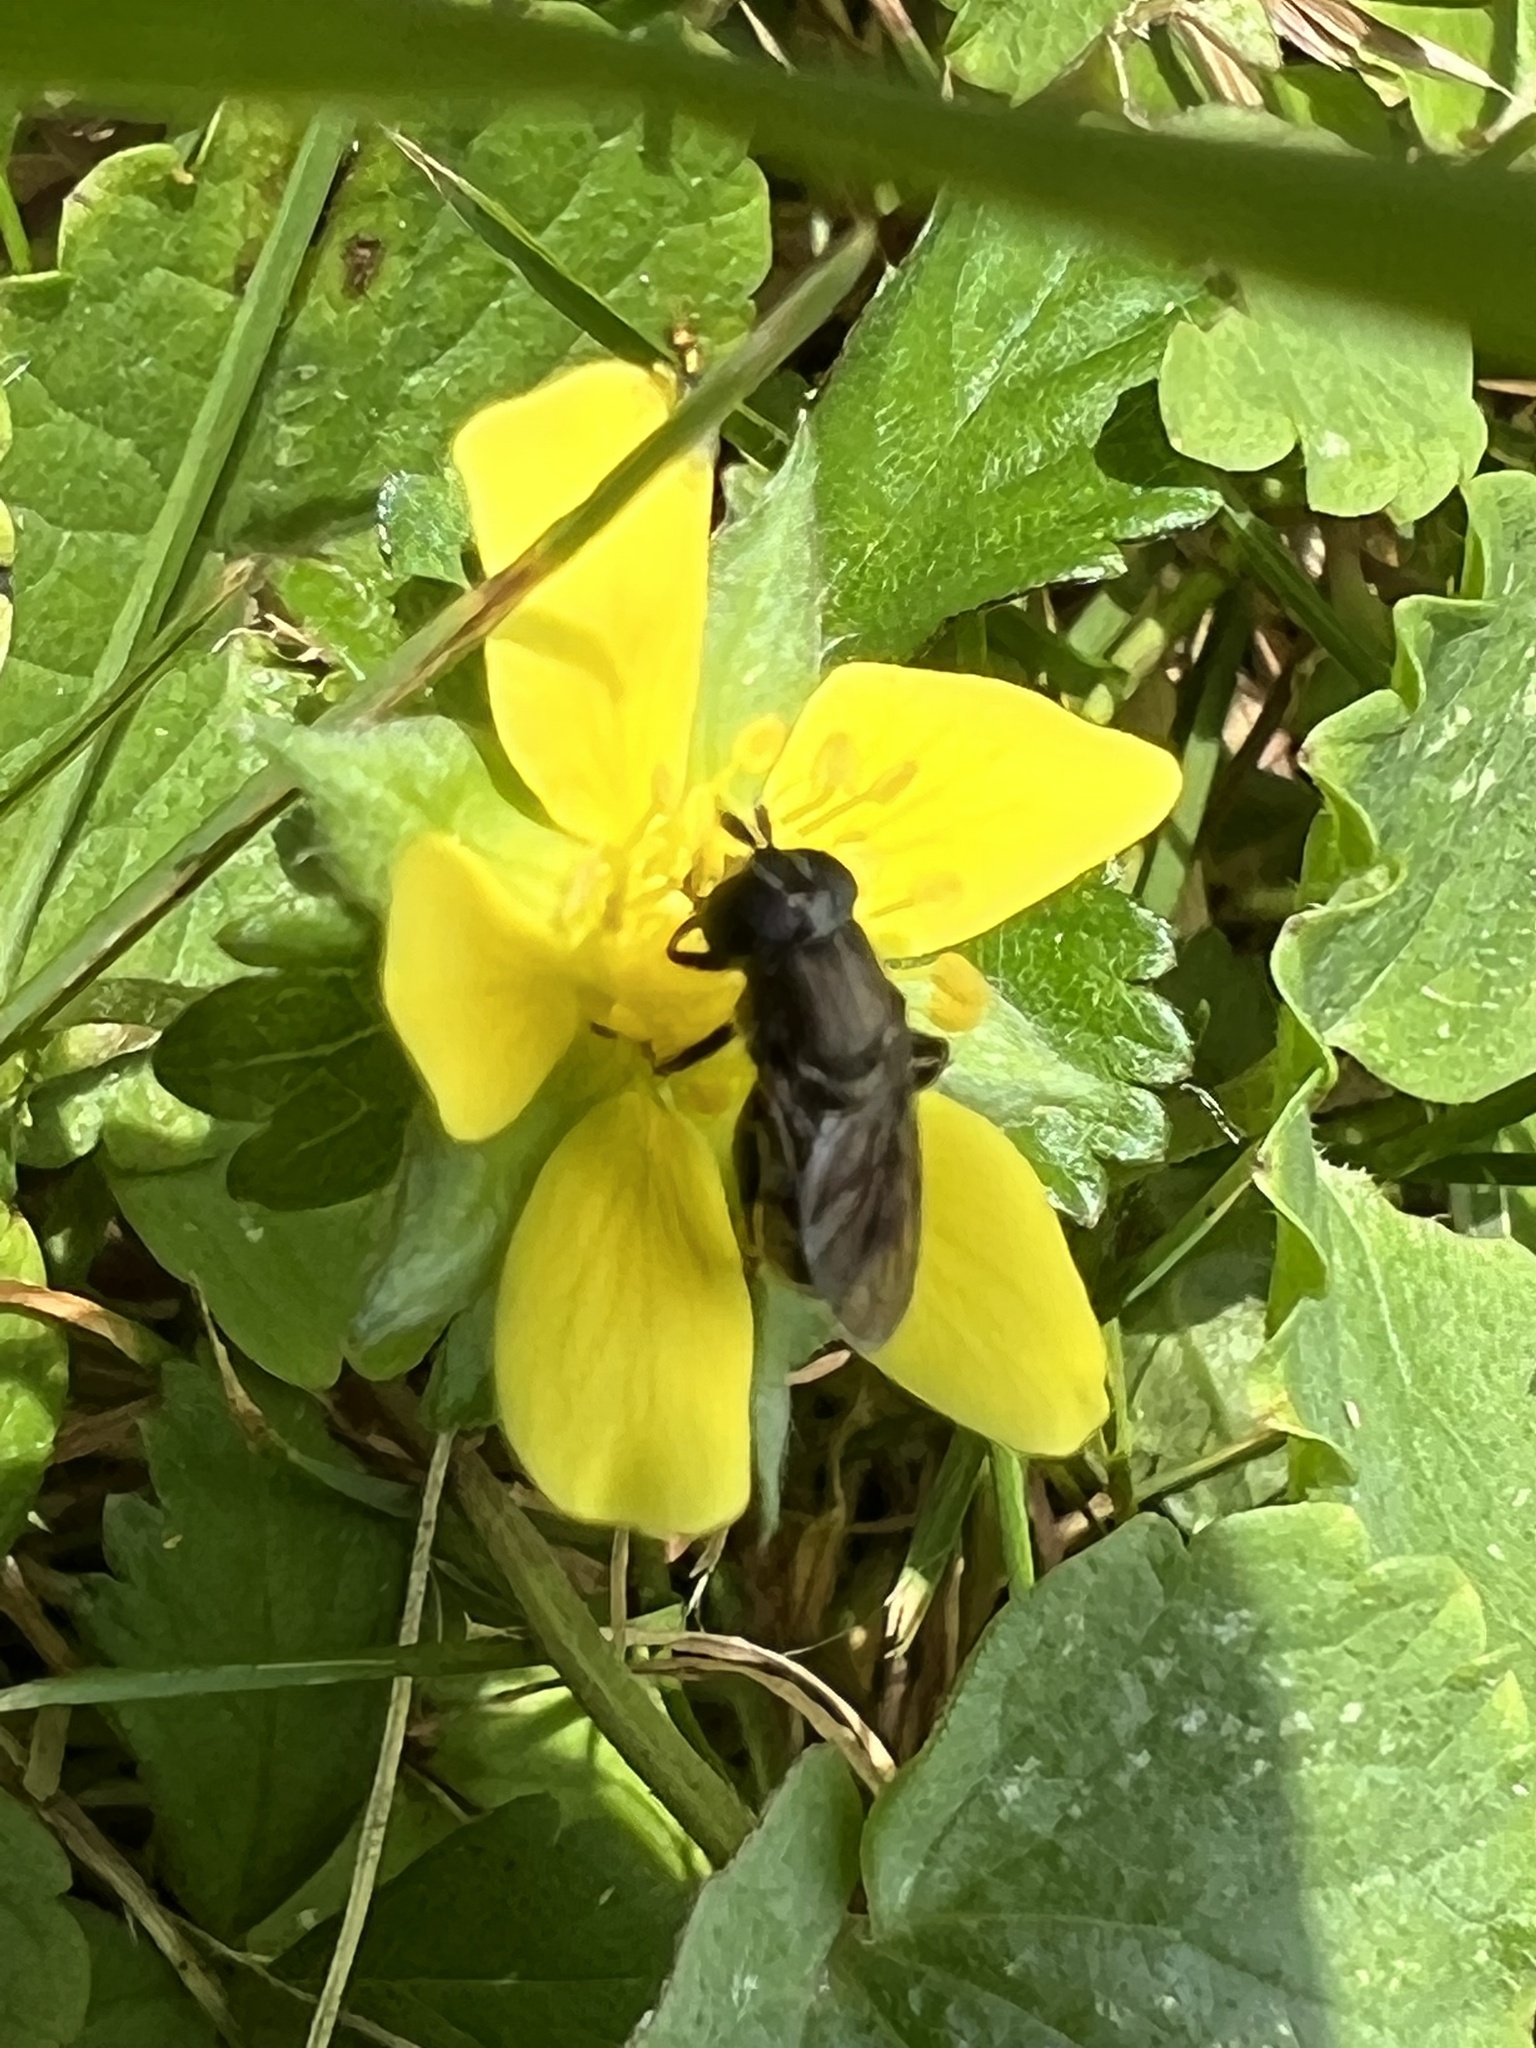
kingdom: Animalia
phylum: Arthropoda
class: Insecta
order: Diptera
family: Syrphidae
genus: Eumerus
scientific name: Eumerus
